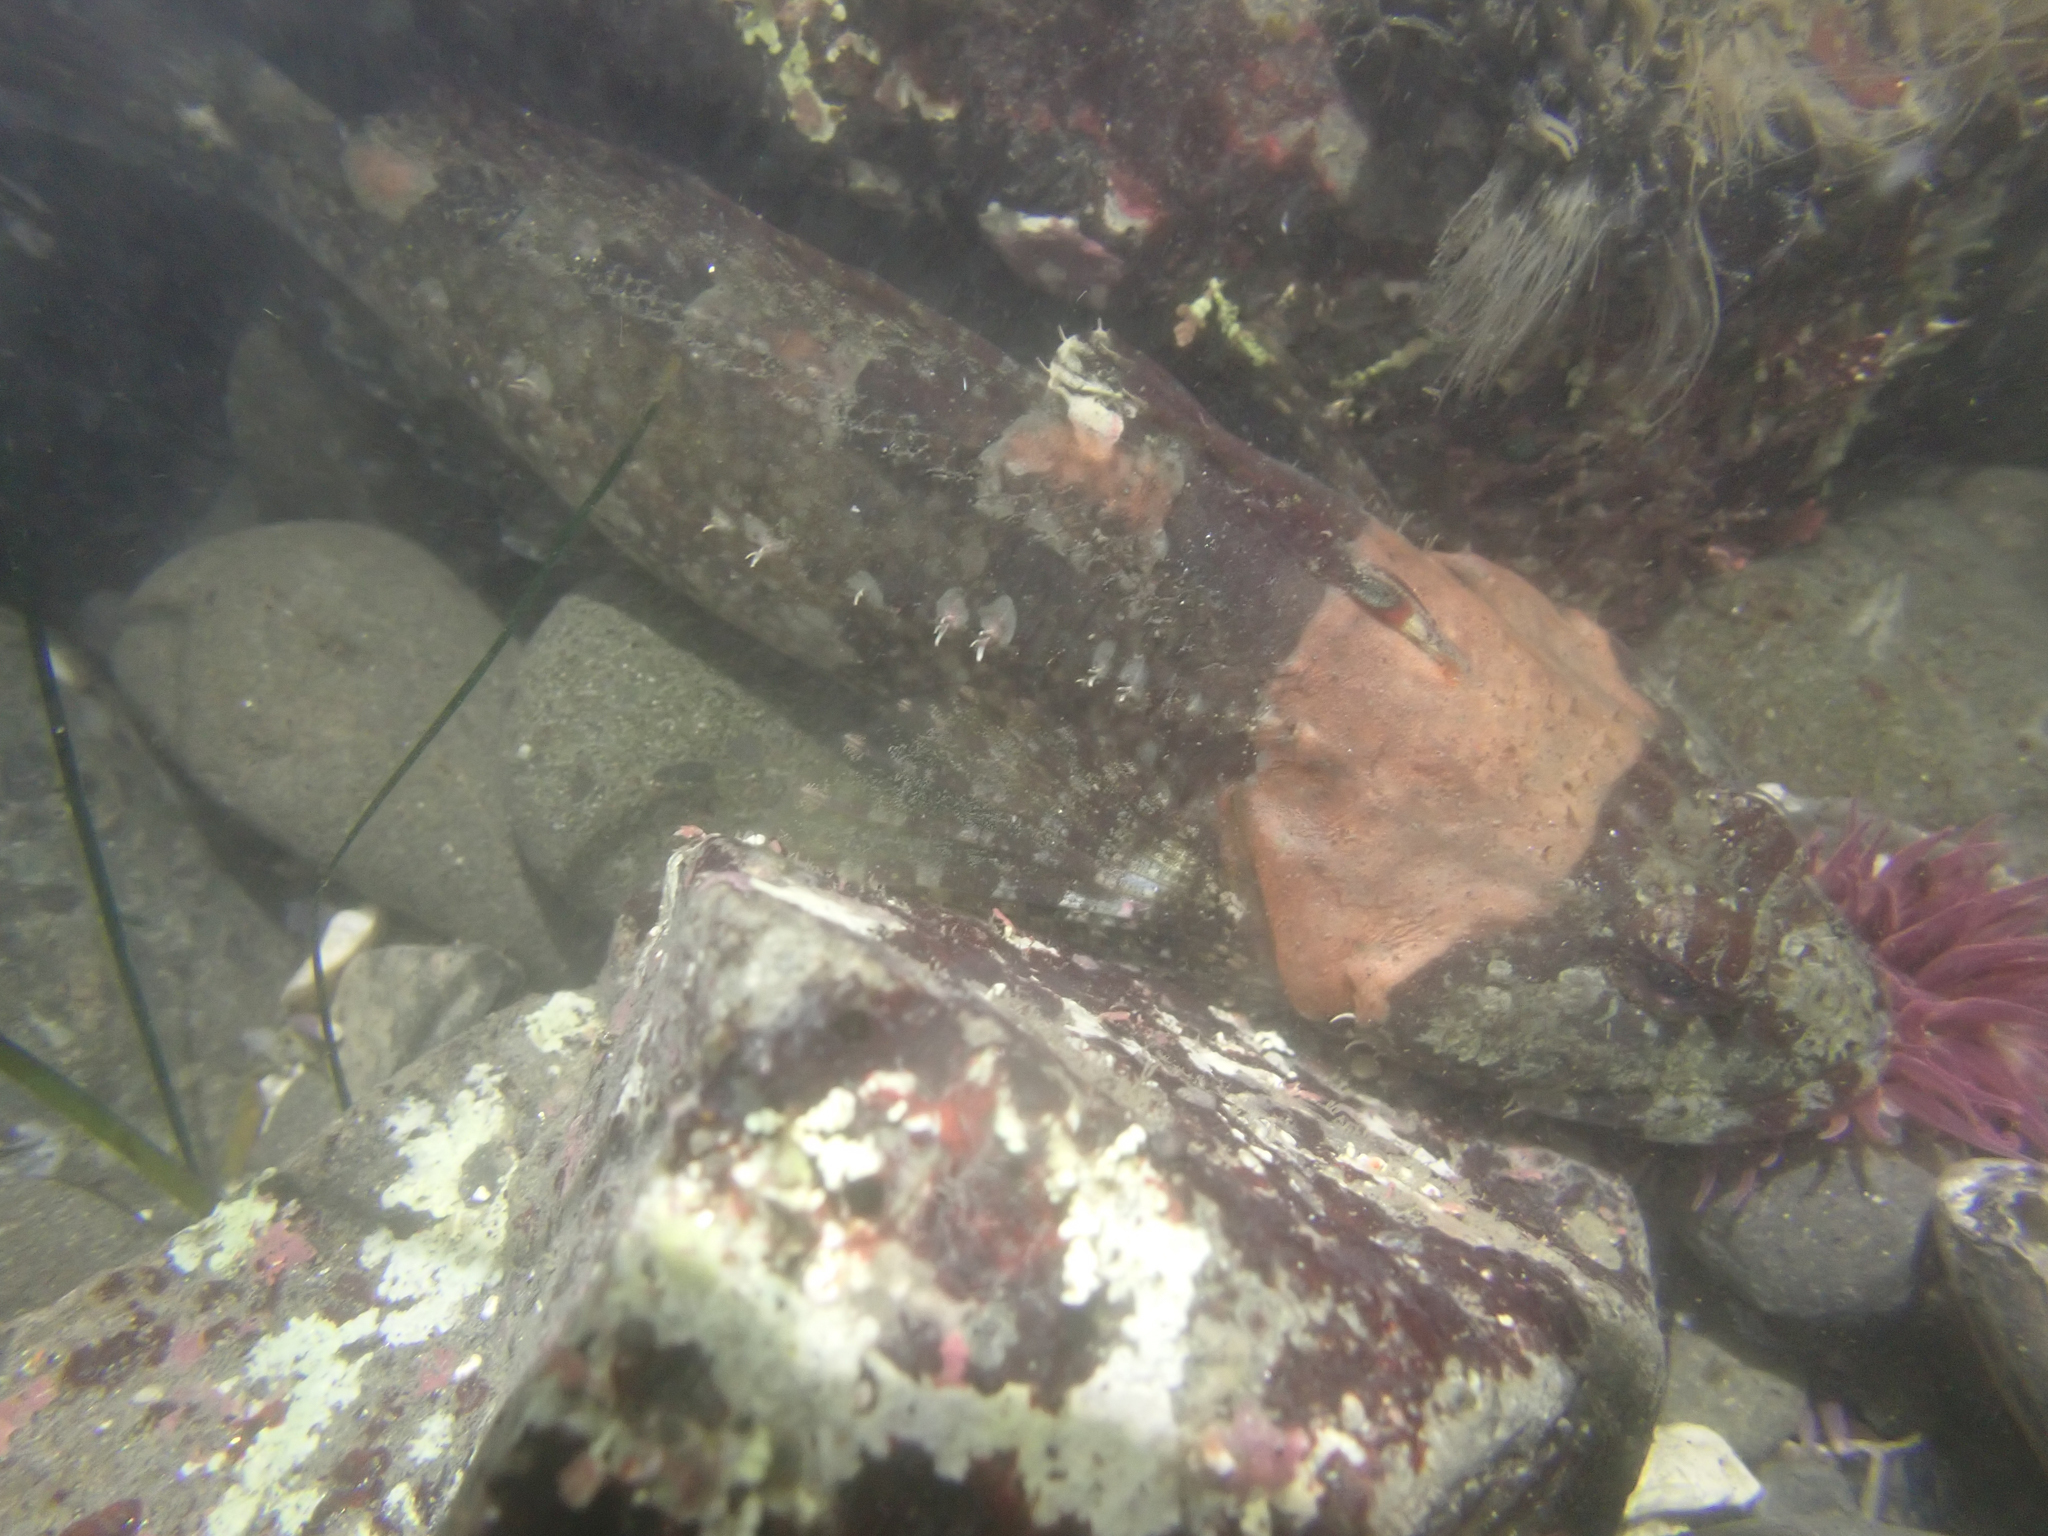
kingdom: Animalia
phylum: Chordata
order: Scorpaeniformes
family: Cottidae
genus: Artedius
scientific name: Artedius lateralis
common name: Smooth-head sculpin
